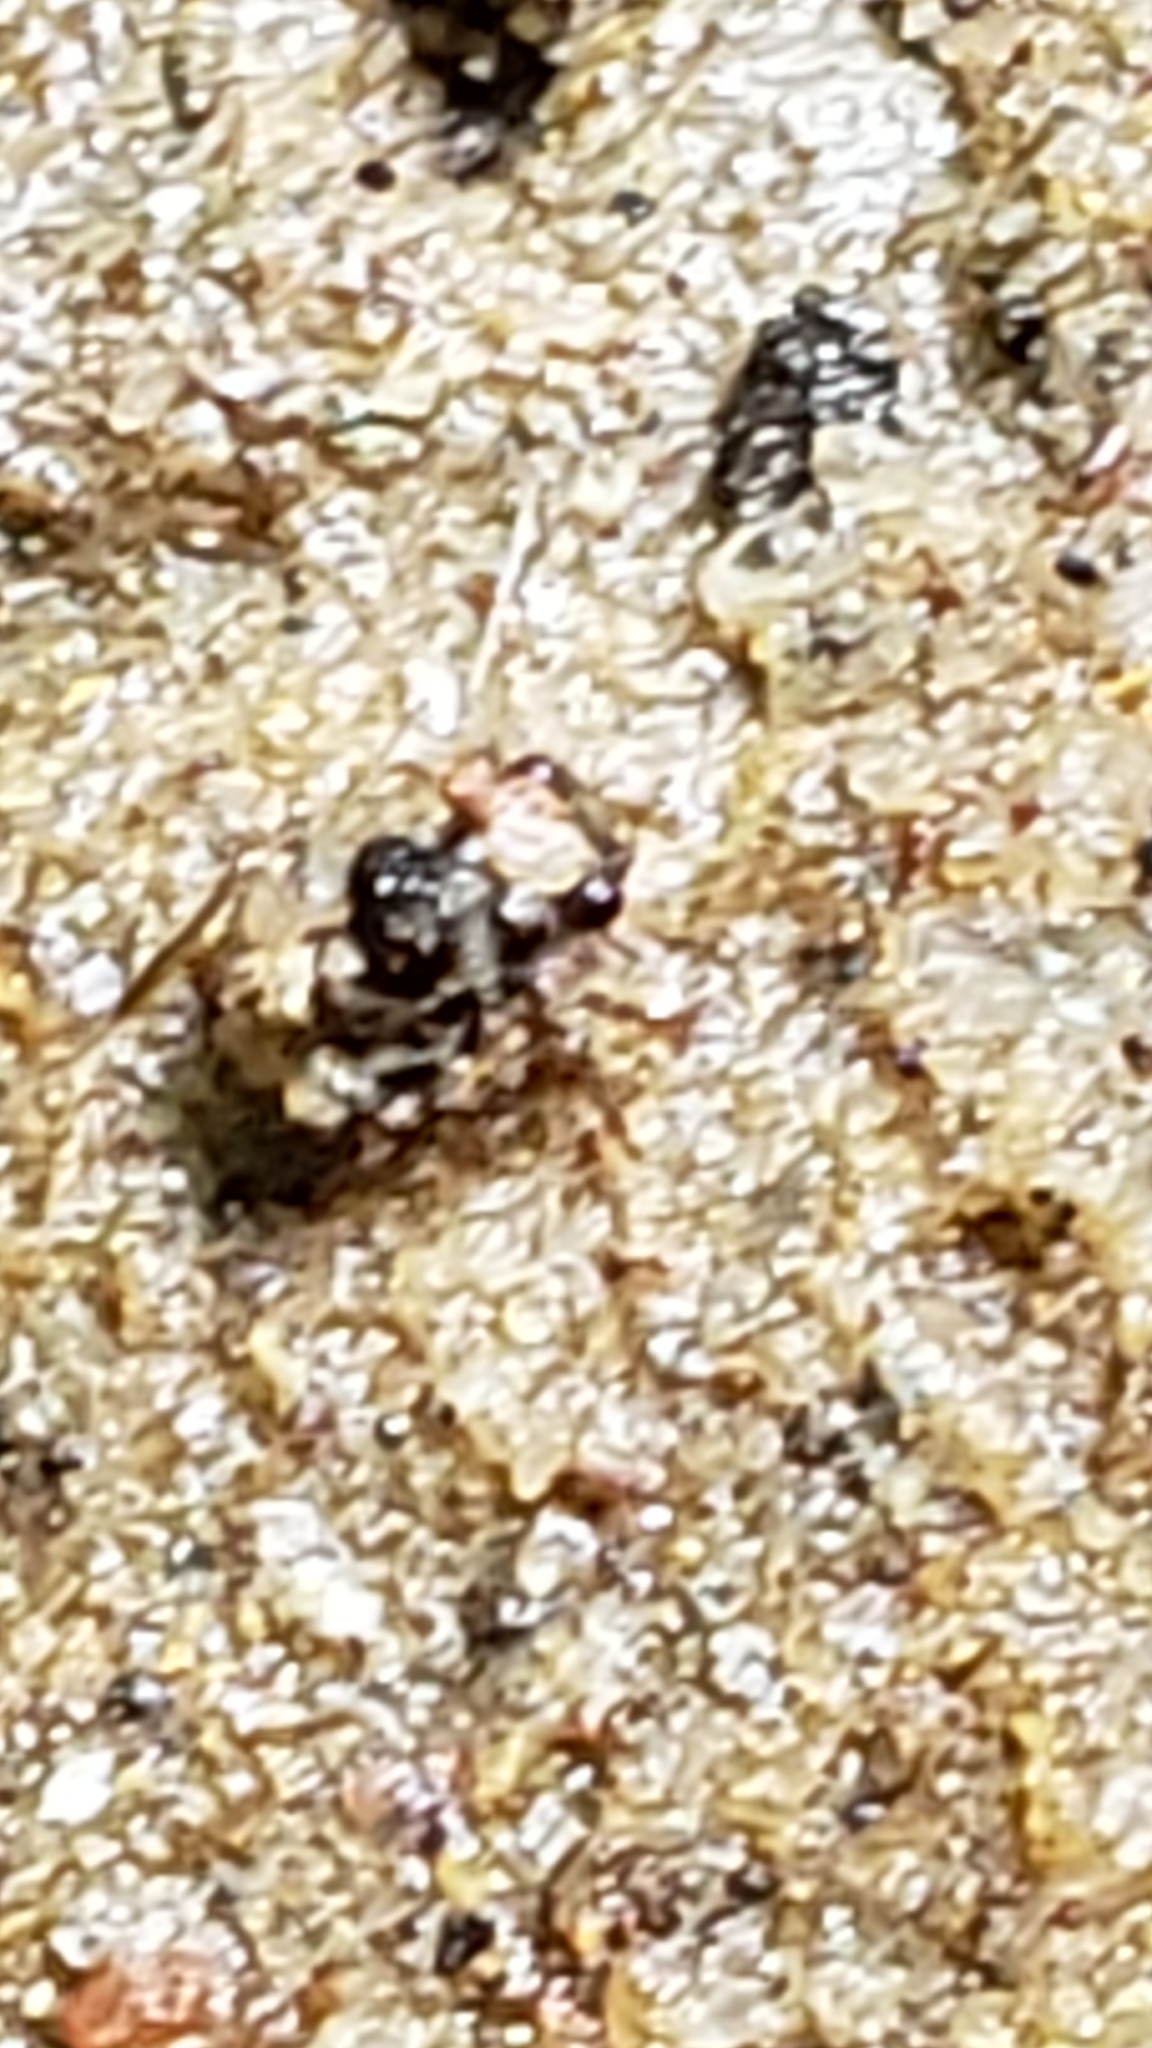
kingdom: Animalia
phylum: Arthropoda
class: Insecta
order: Hemiptera
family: Gelastocoridae
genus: Gelastocoris
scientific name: Gelastocoris oculatus
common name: Toad bug
